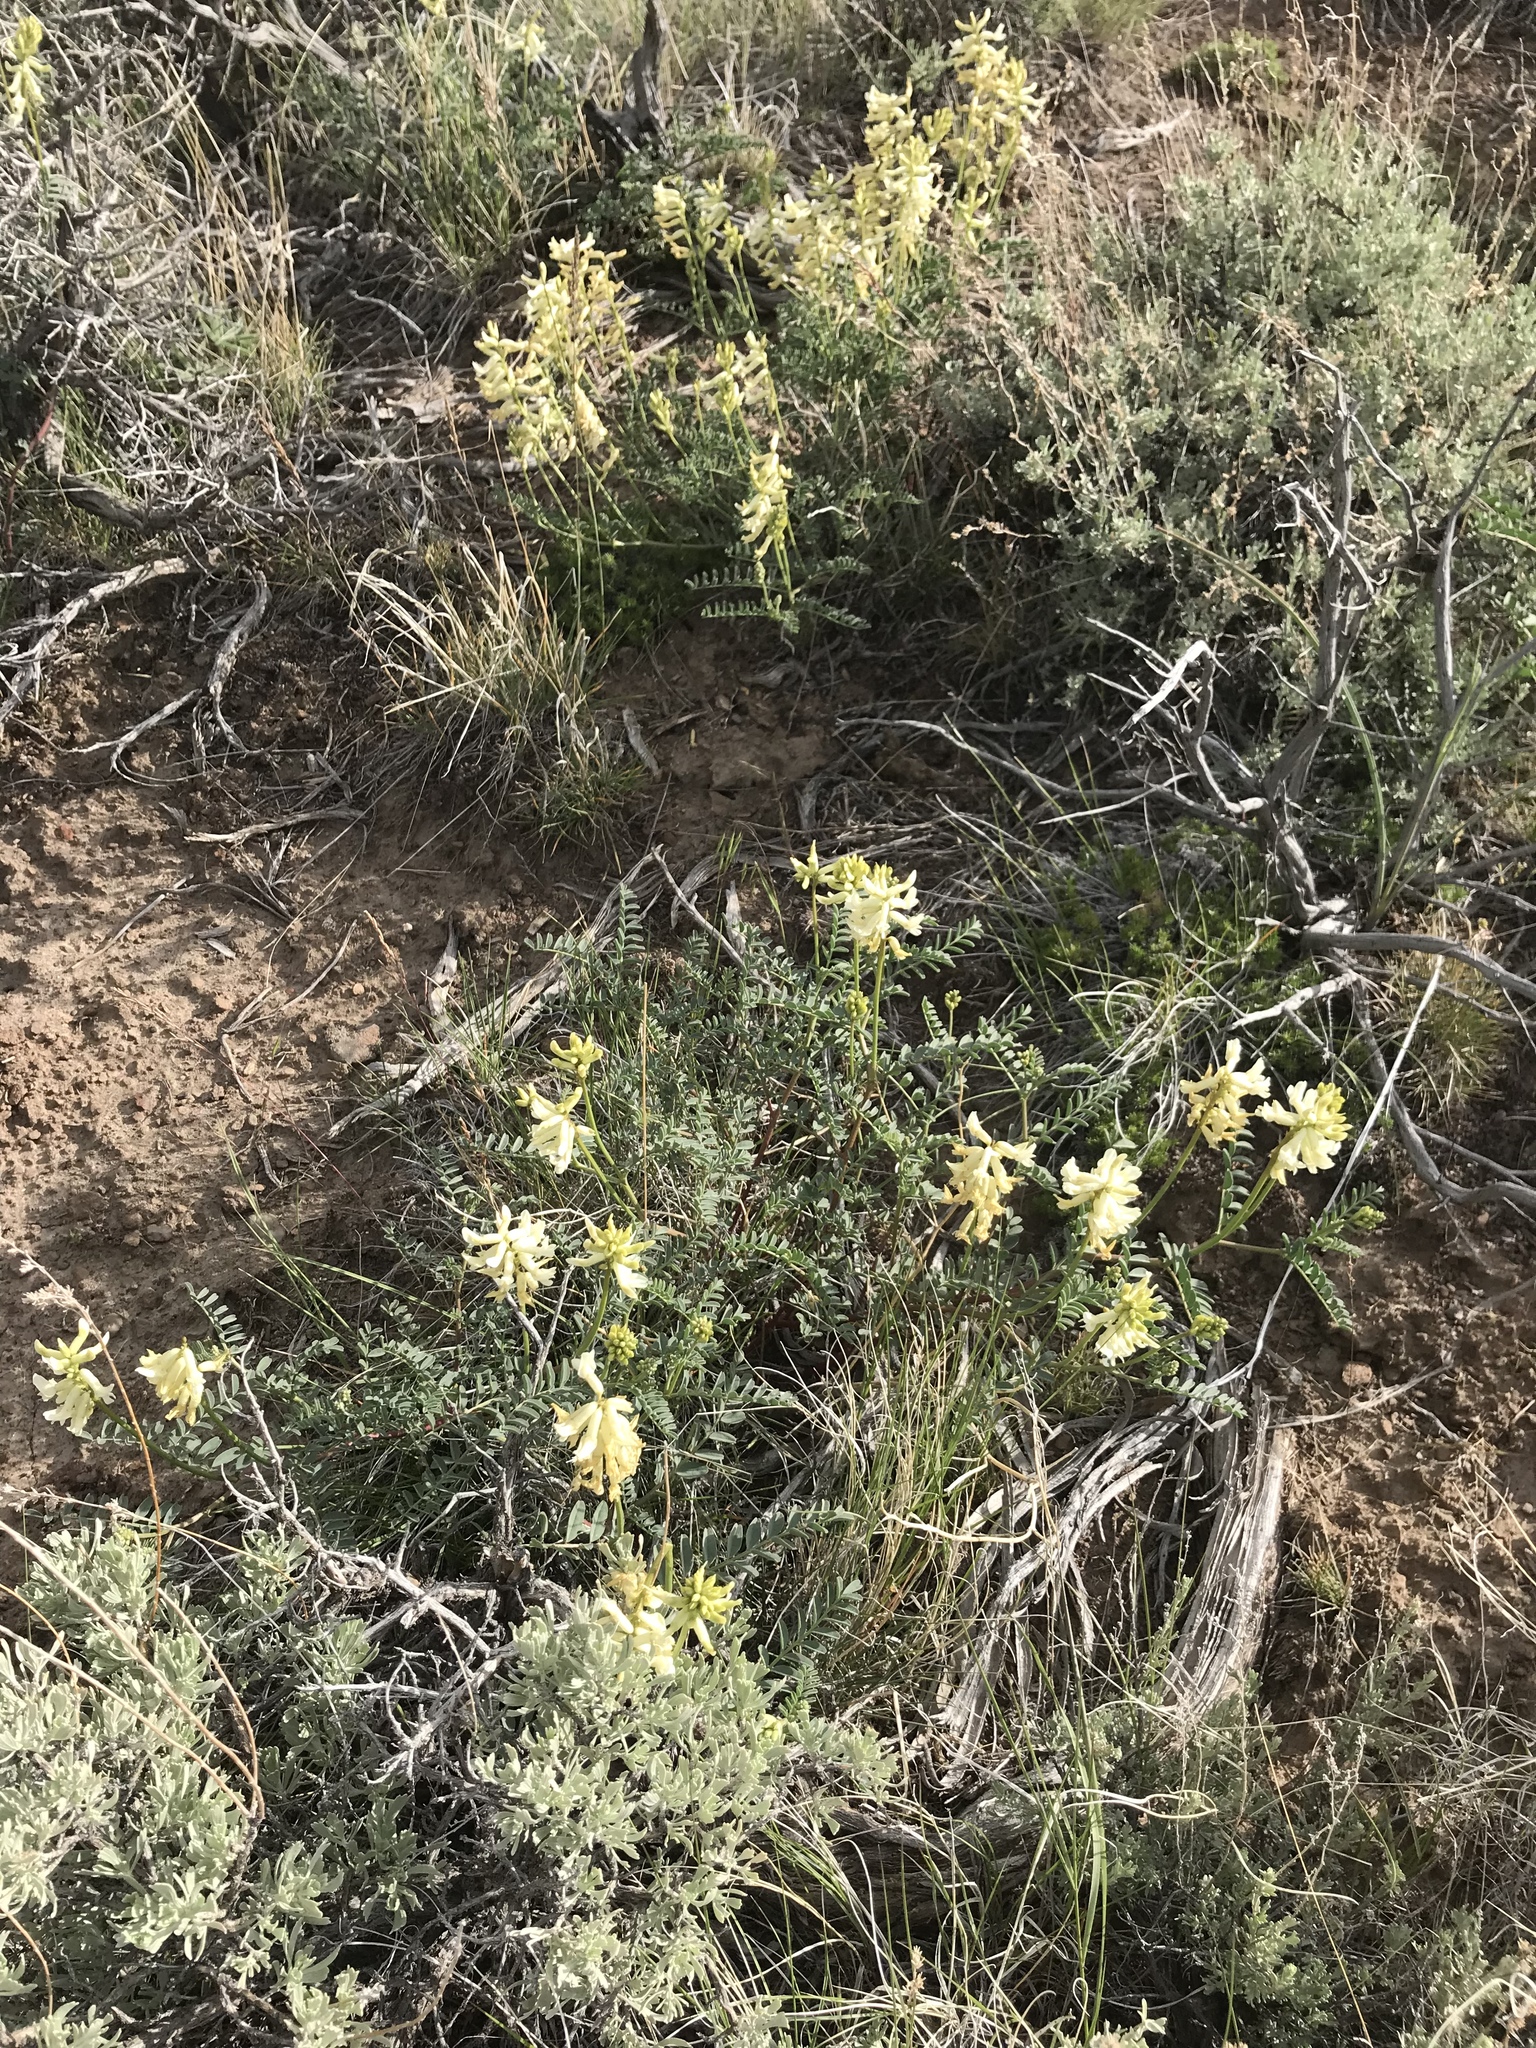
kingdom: Plantae
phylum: Tracheophyta
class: Magnoliopsida
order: Fabales
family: Fabaceae
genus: Astragalus
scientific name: Astragalus curvicarpus
